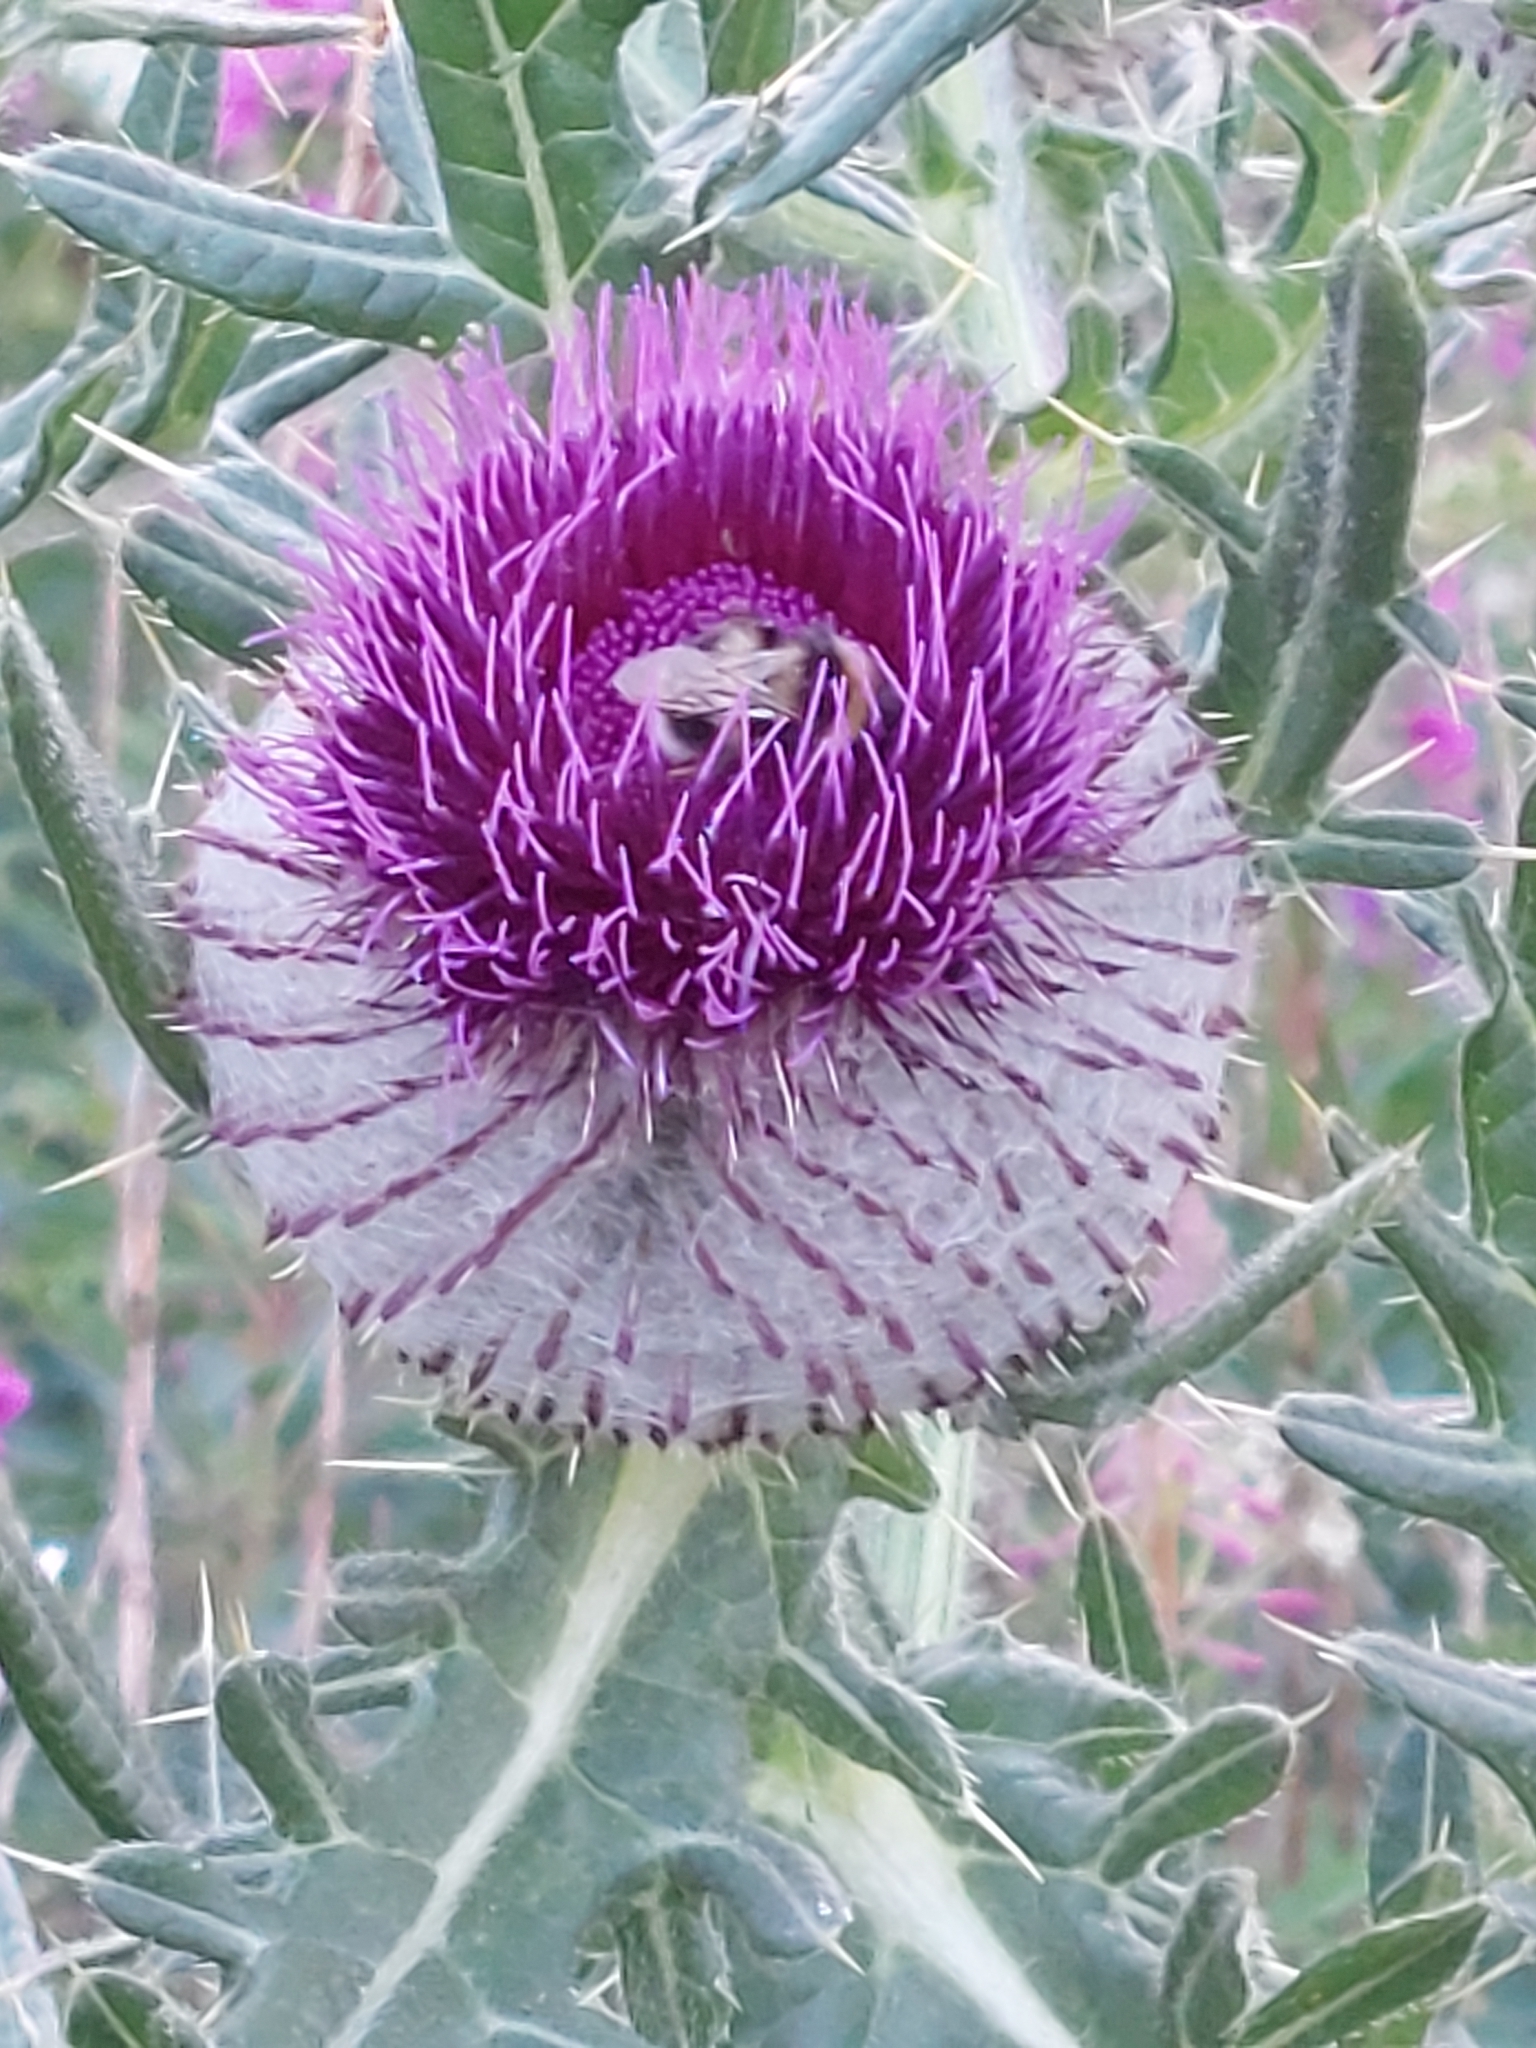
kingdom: Plantae
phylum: Tracheophyta
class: Magnoliopsida
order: Asterales
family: Asteraceae
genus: Lophiolepis
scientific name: Lophiolepis eriophora
